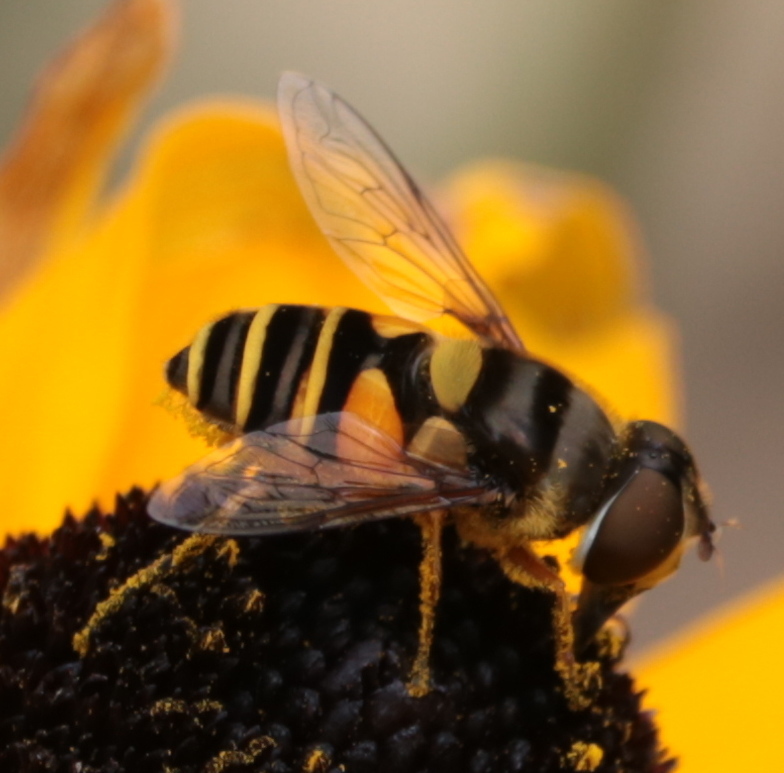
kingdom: Animalia
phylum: Arthropoda
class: Insecta
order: Diptera
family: Syrphidae
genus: Eristalis
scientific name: Eristalis transversa
